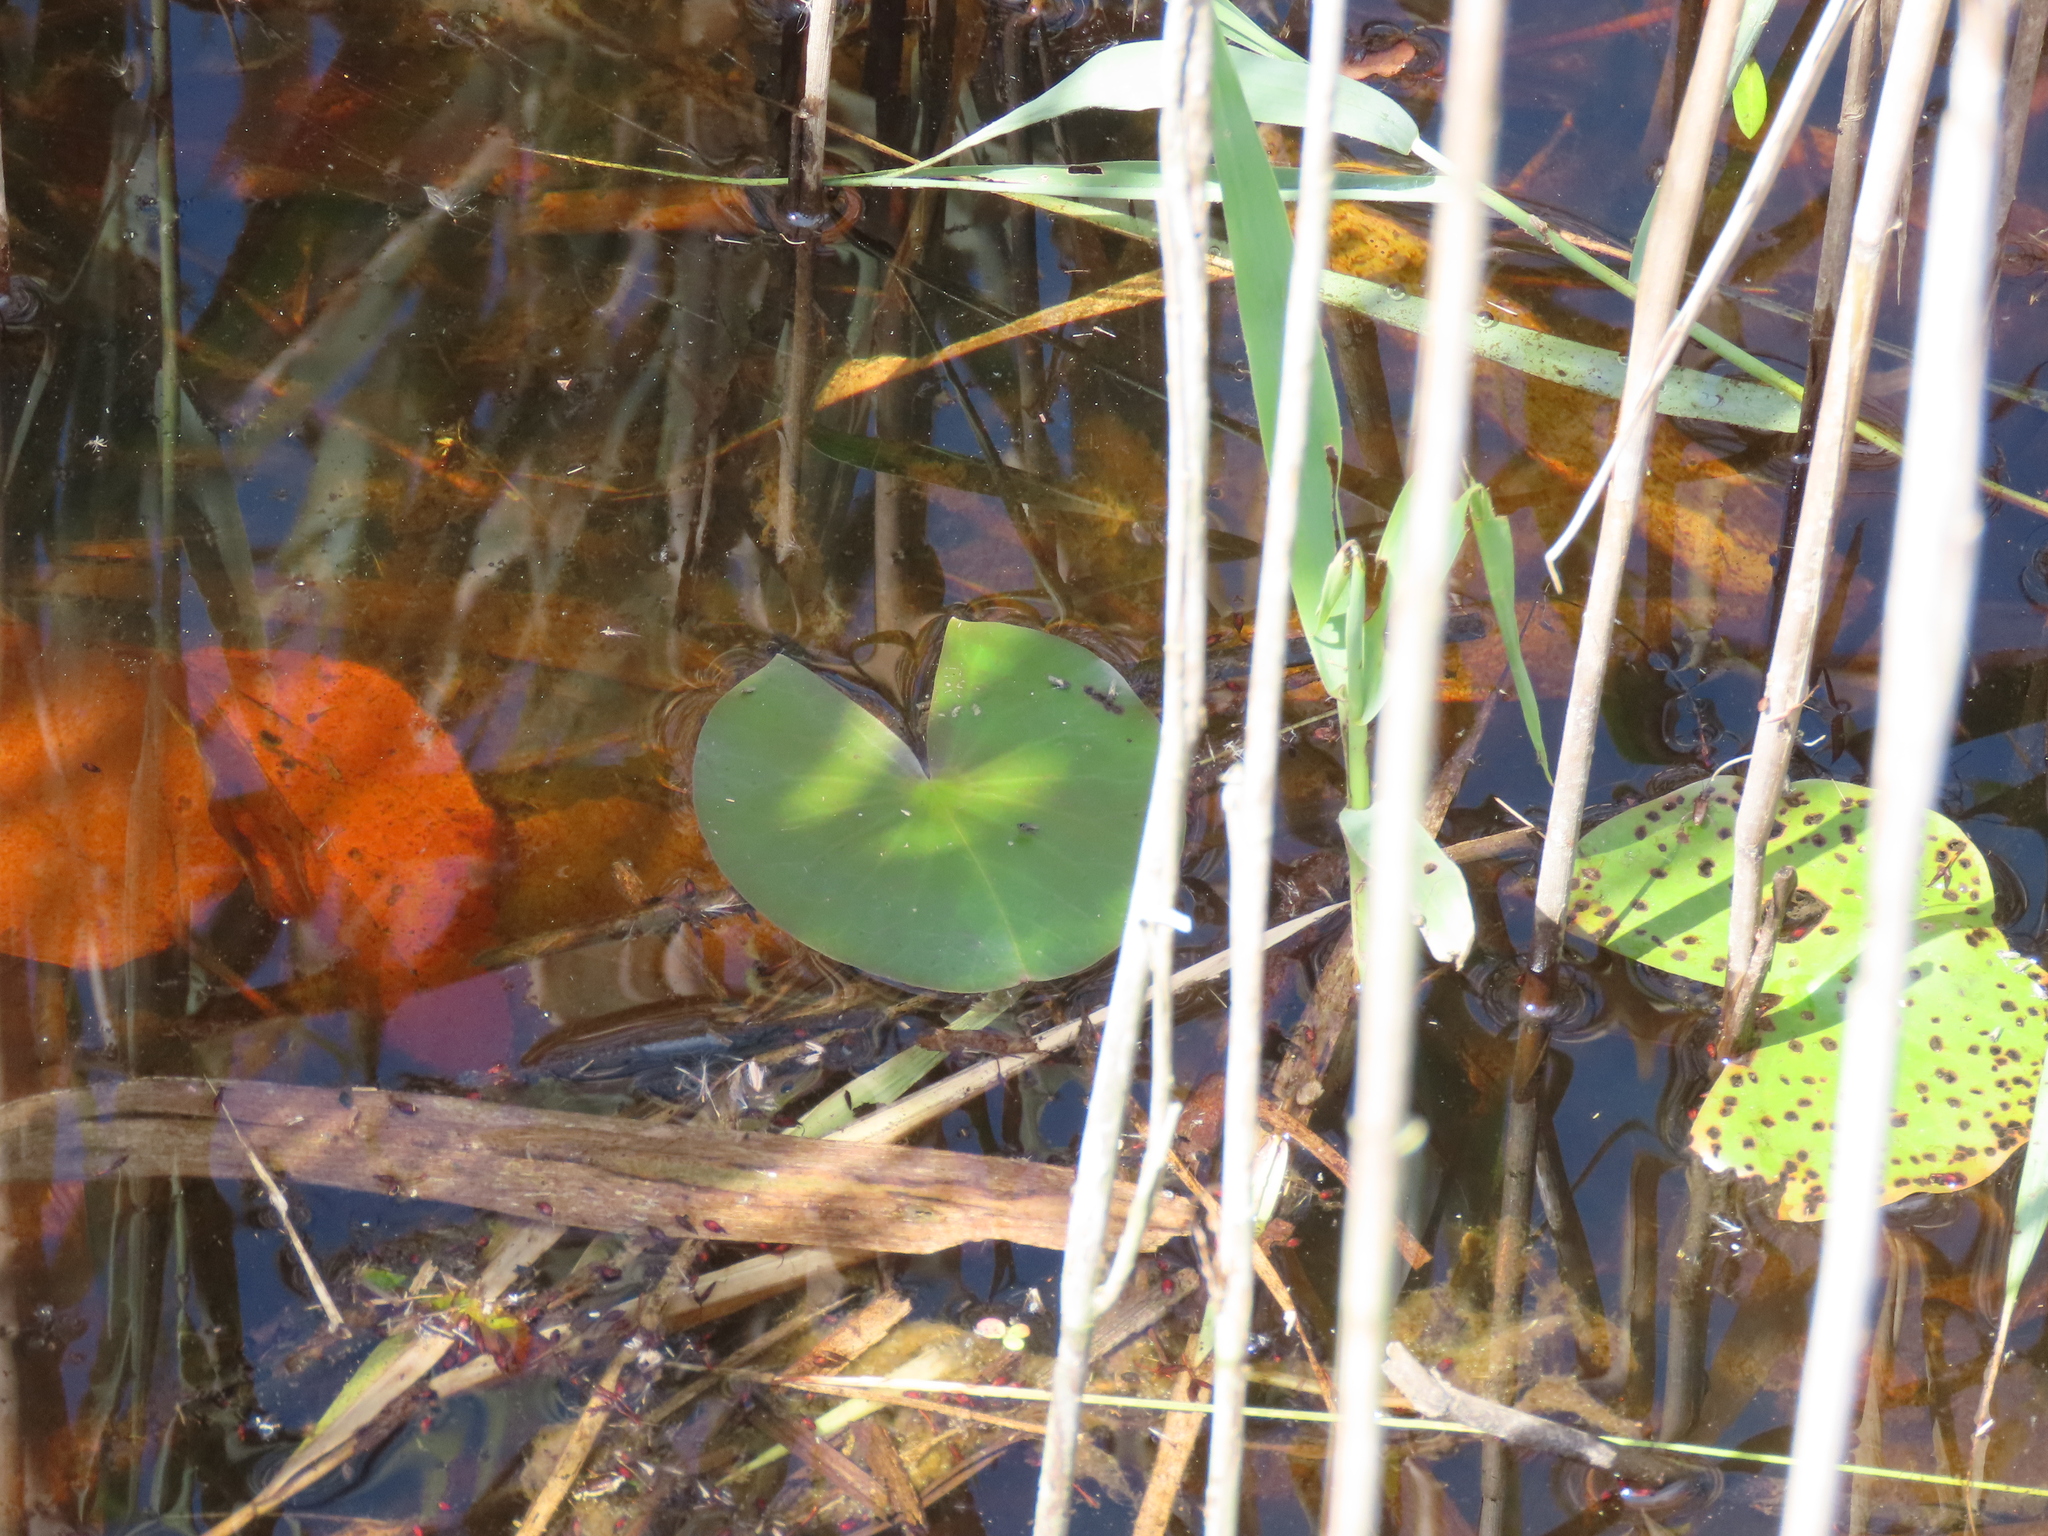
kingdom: Plantae
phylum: Tracheophyta
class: Magnoliopsida
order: Nymphaeales
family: Nymphaeaceae
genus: Nymphaea
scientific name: Nymphaea odorata
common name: Fragrant water-lily
